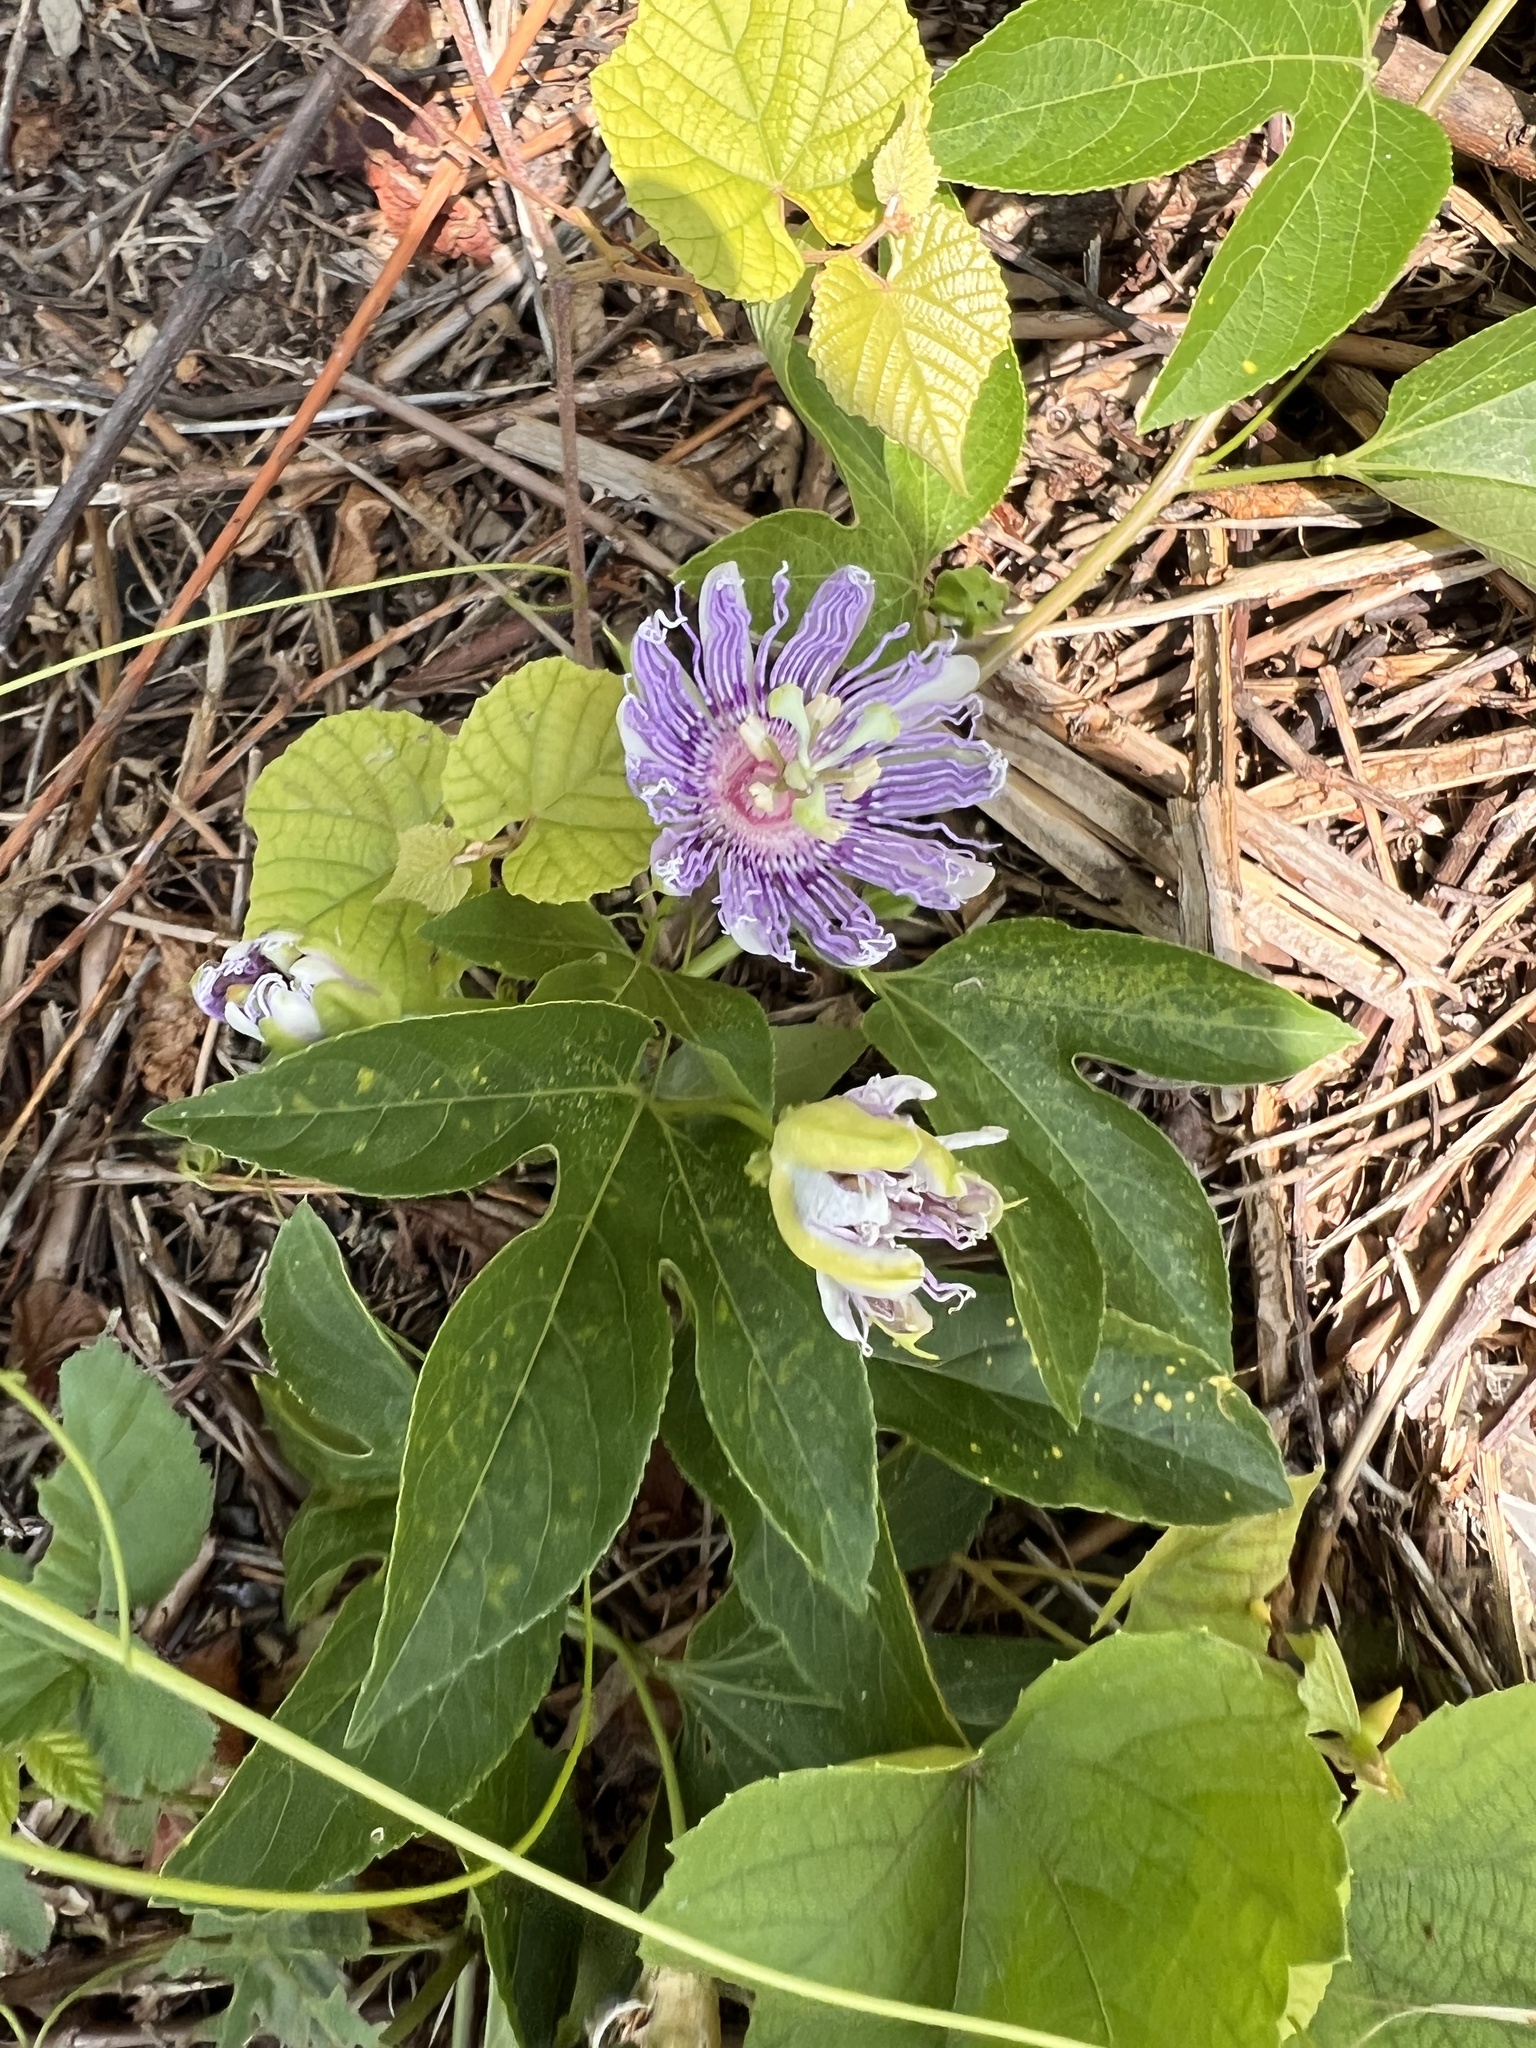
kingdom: Plantae
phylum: Tracheophyta
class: Magnoliopsida
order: Malpighiales
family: Passifloraceae
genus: Passiflora
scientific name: Passiflora incarnata
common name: Apricot-vine
